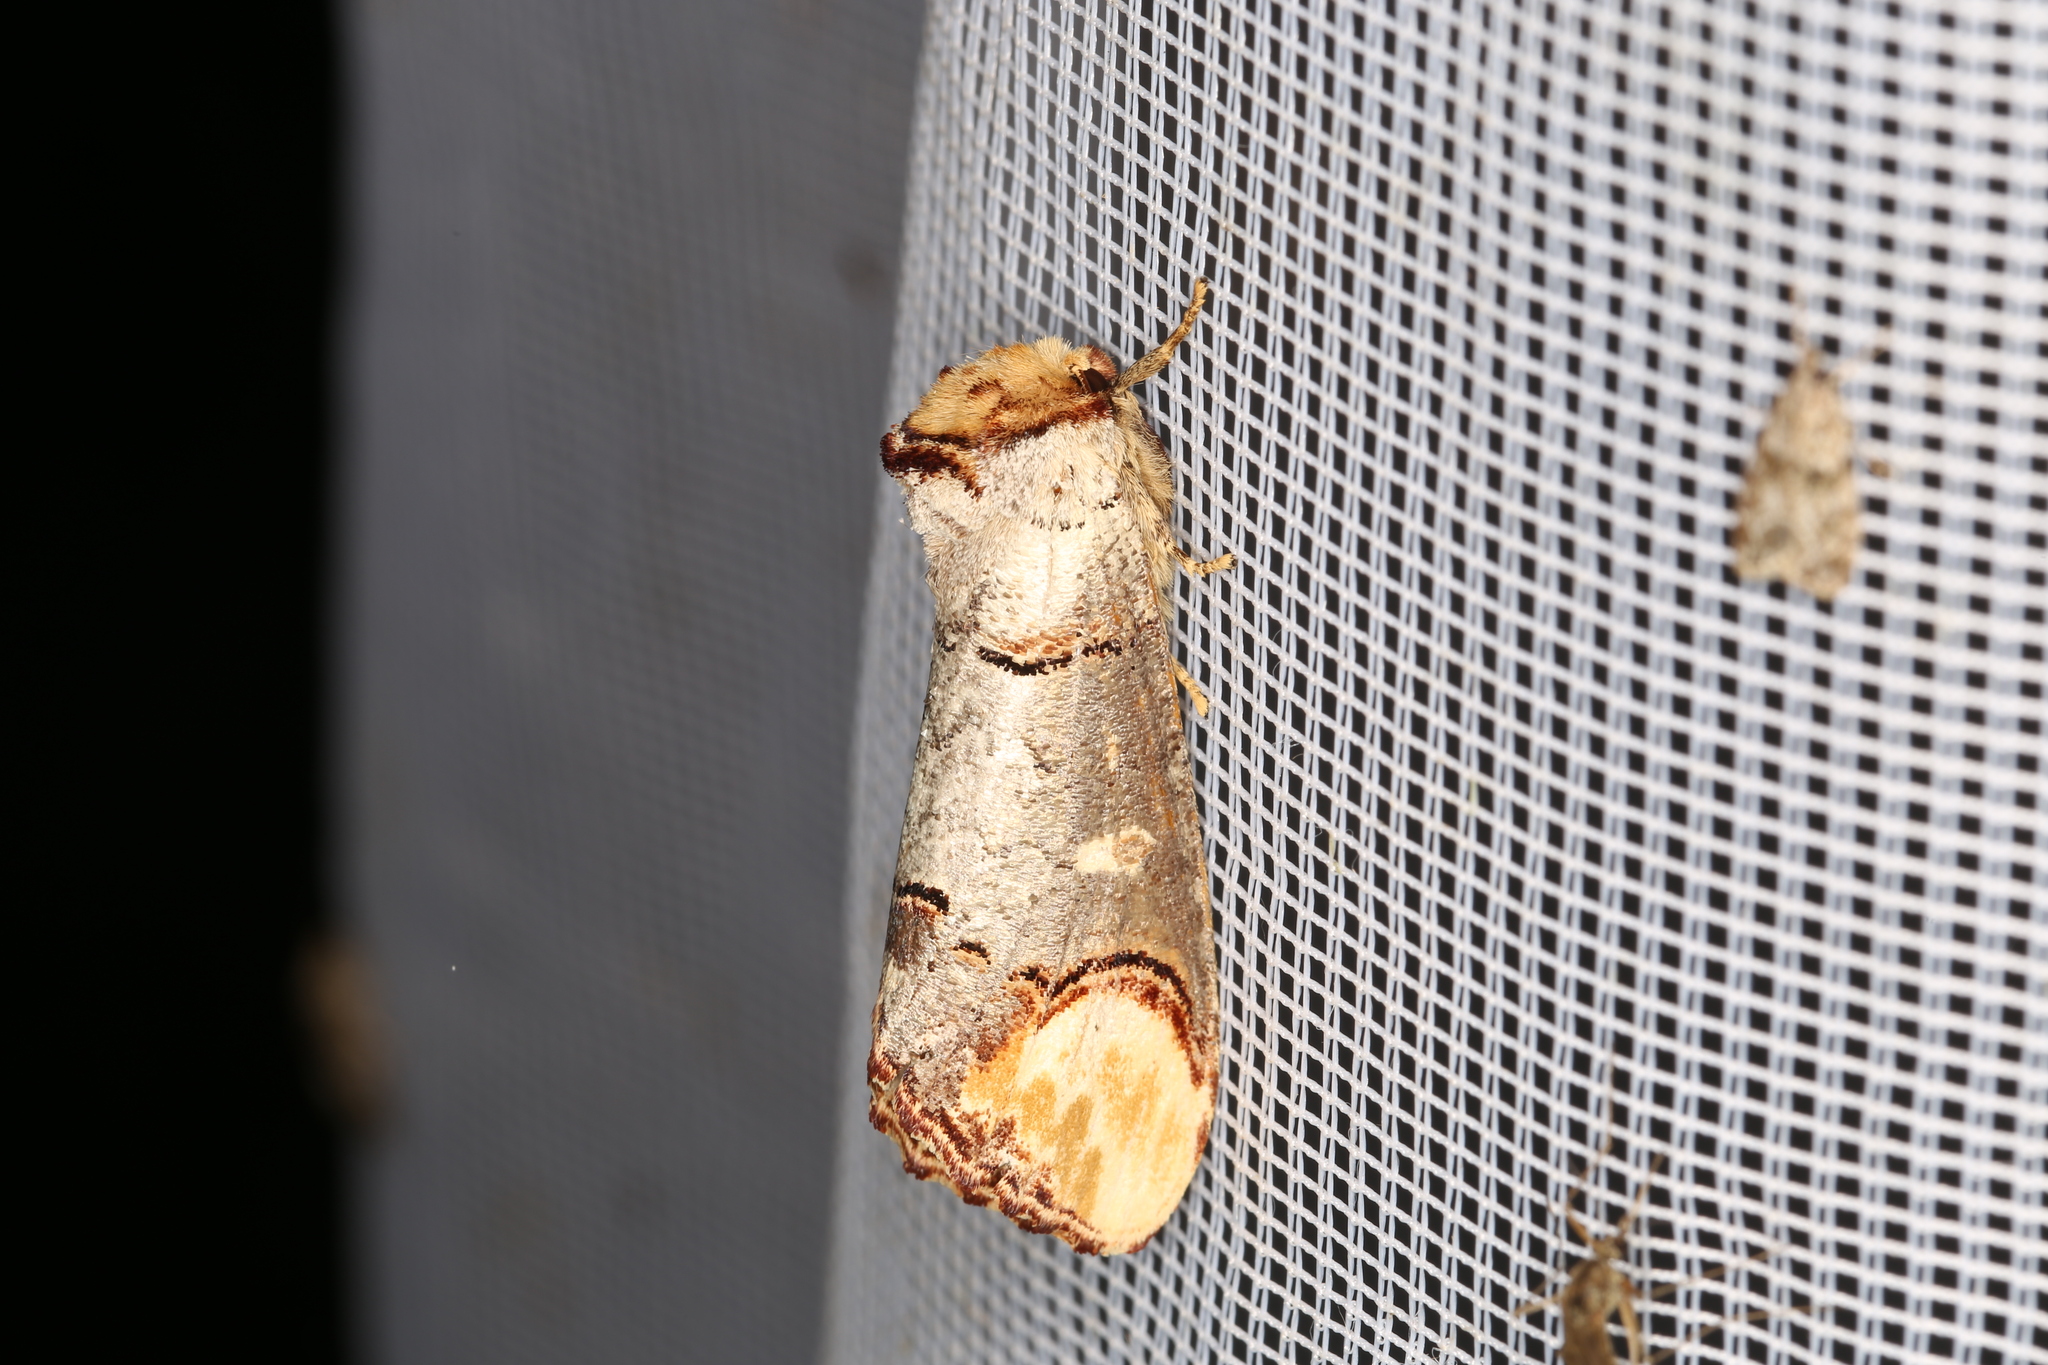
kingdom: Animalia
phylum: Arthropoda
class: Insecta
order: Lepidoptera
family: Notodontidae
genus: Phalera
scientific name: Phalera bucephala
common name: Buff-tip
